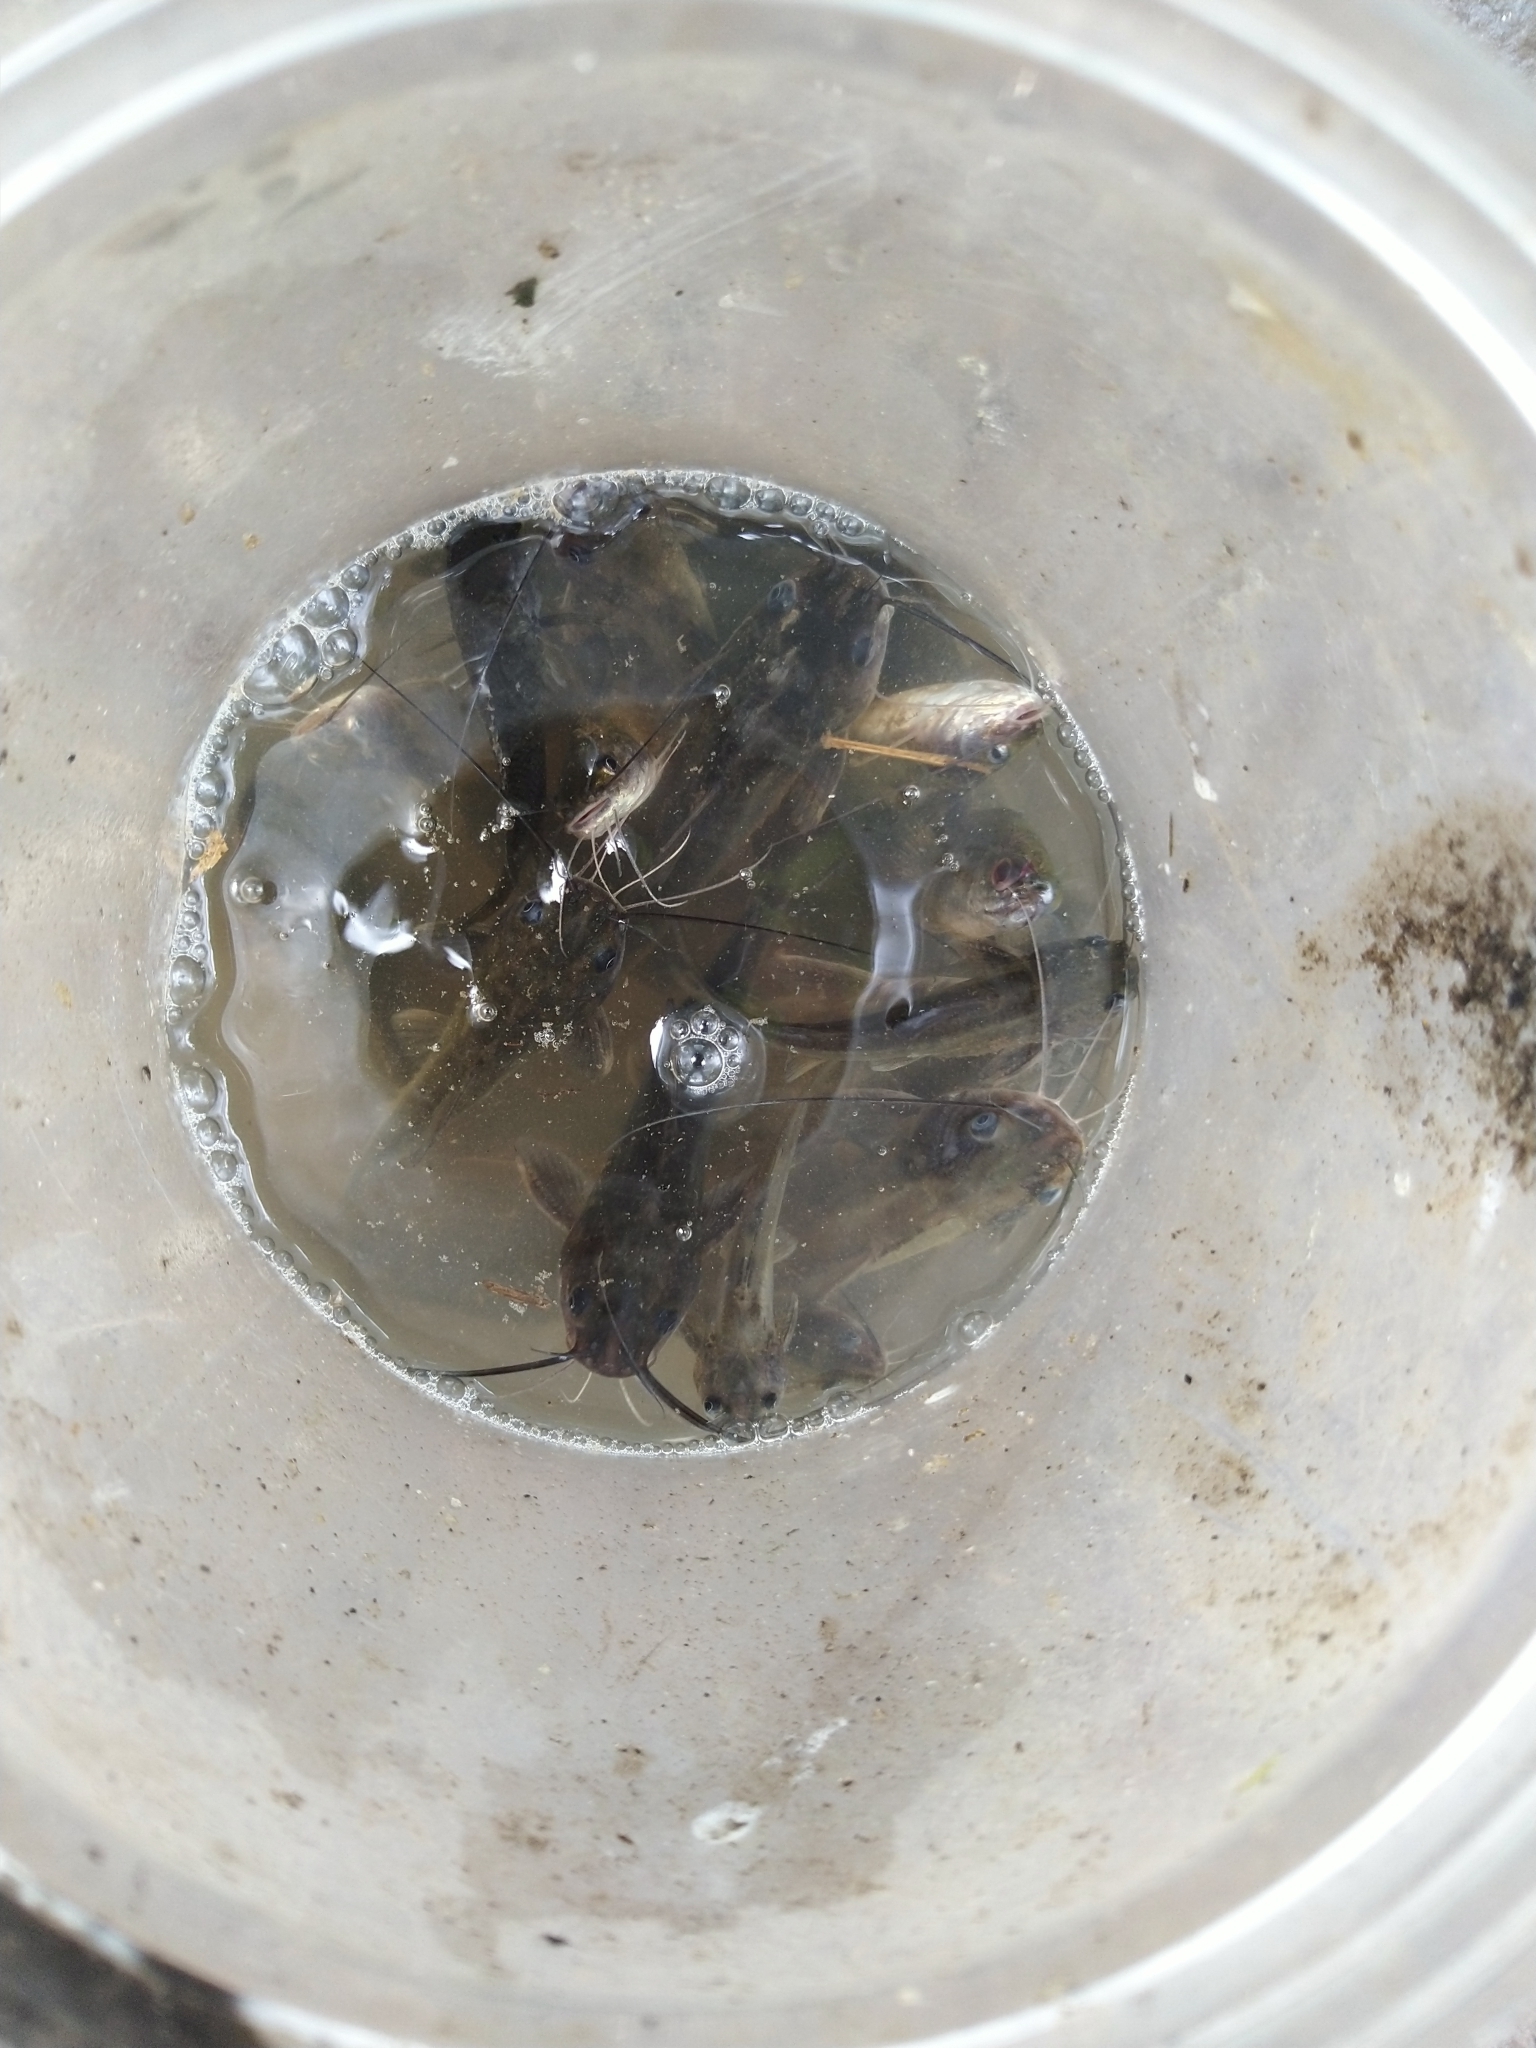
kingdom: Animalia
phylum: Chordata
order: Siluriformes
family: Bagridae
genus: Mystus
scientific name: Mystus gulio
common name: Long whiskers catfish
